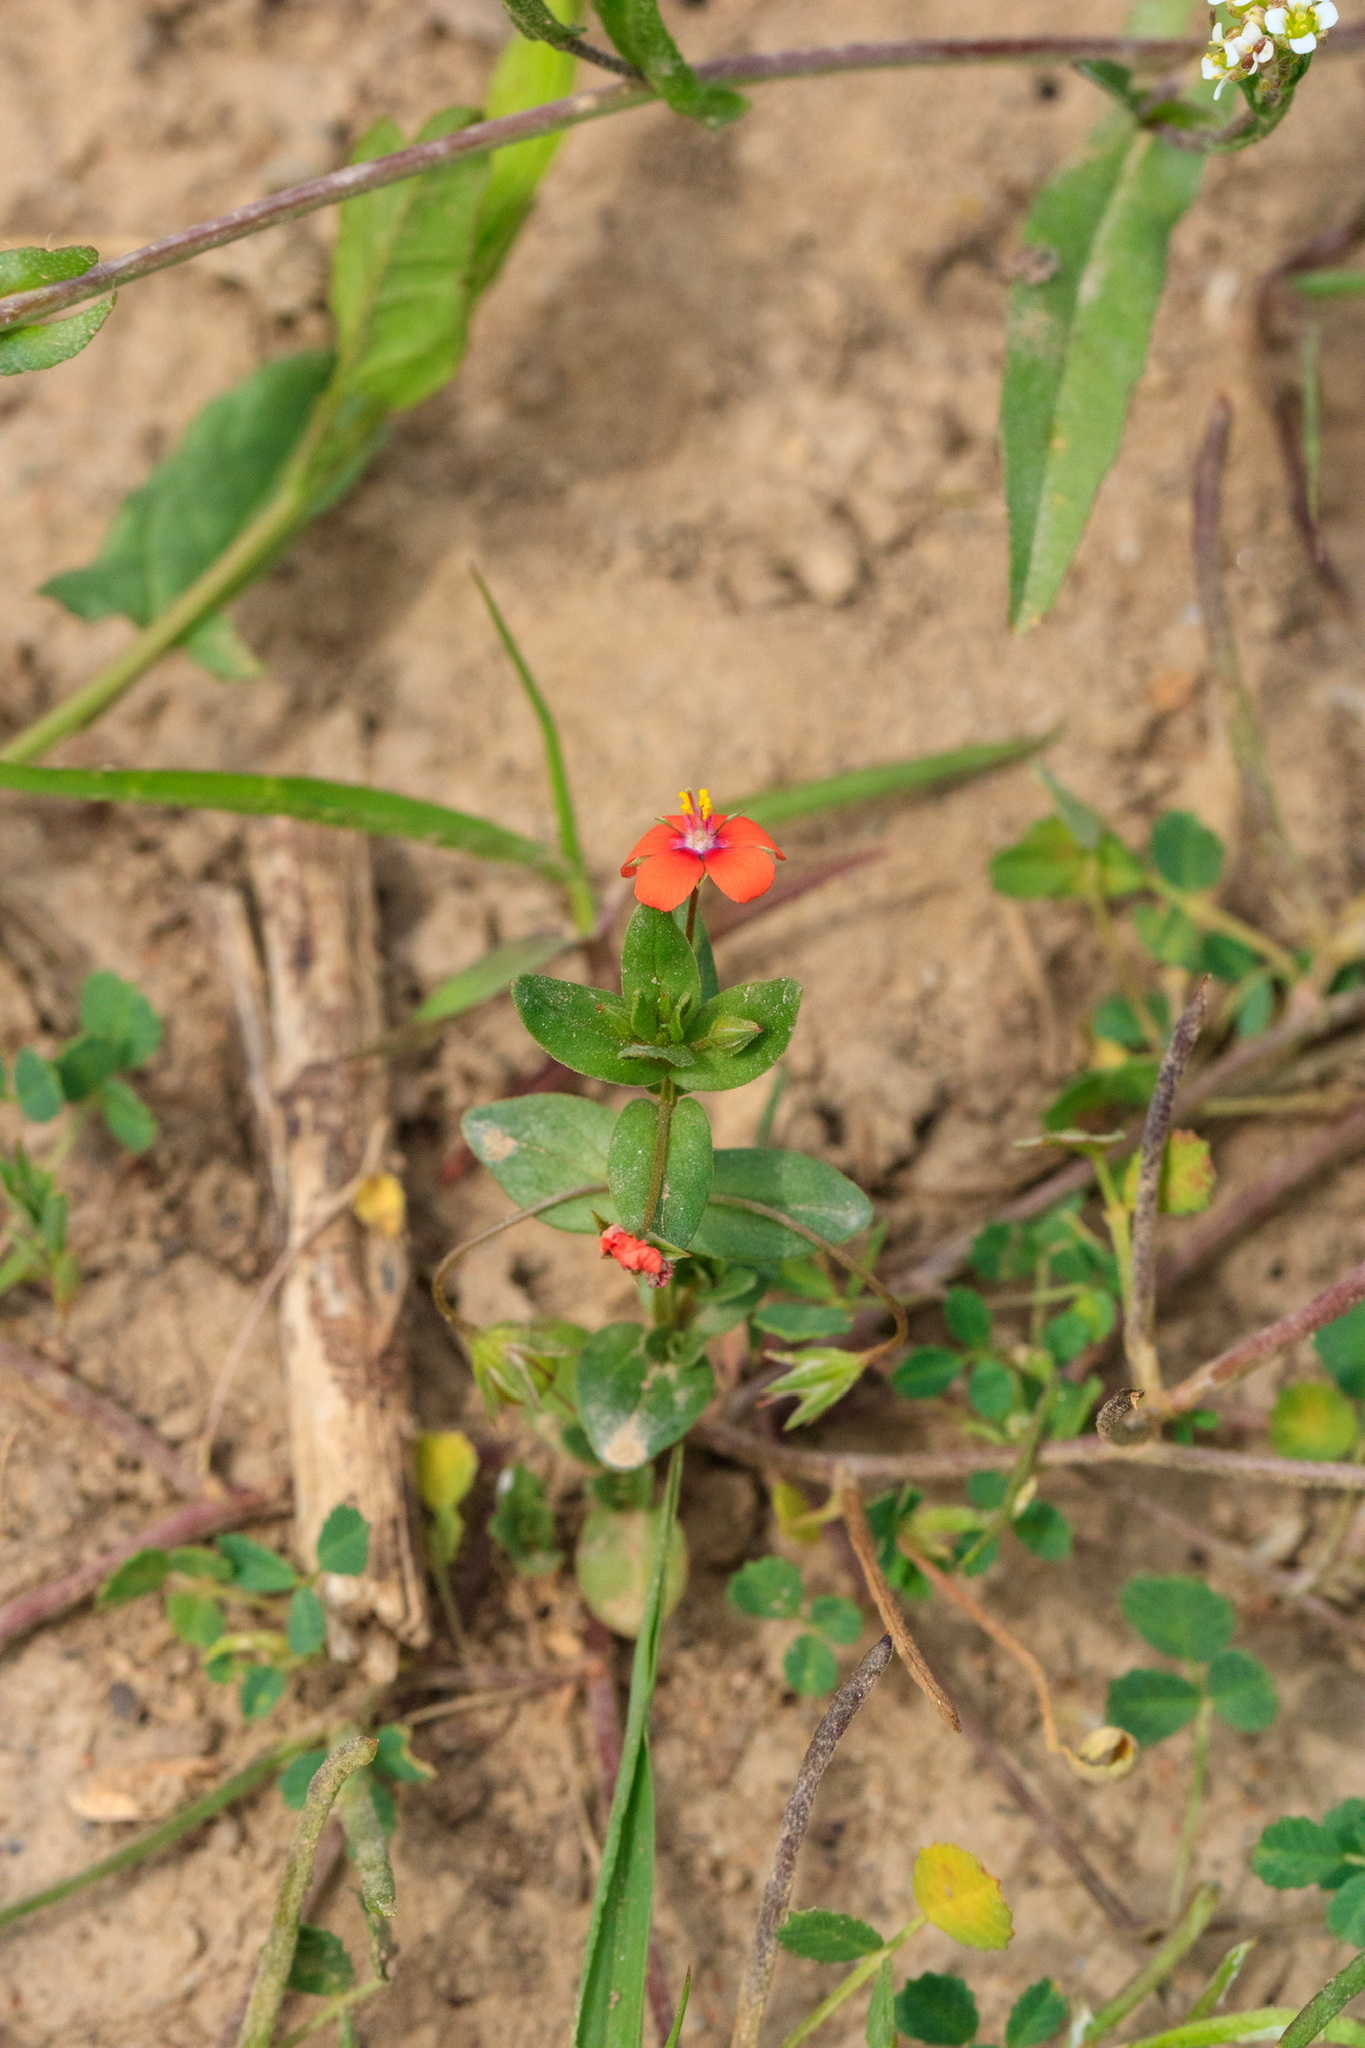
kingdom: Plantae
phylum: Tracheophyta
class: Magnoliopsida
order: Ericales
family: Primulaceae
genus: Lysimachia
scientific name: Lysimachia arvensis
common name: Scarlet pimpernel
